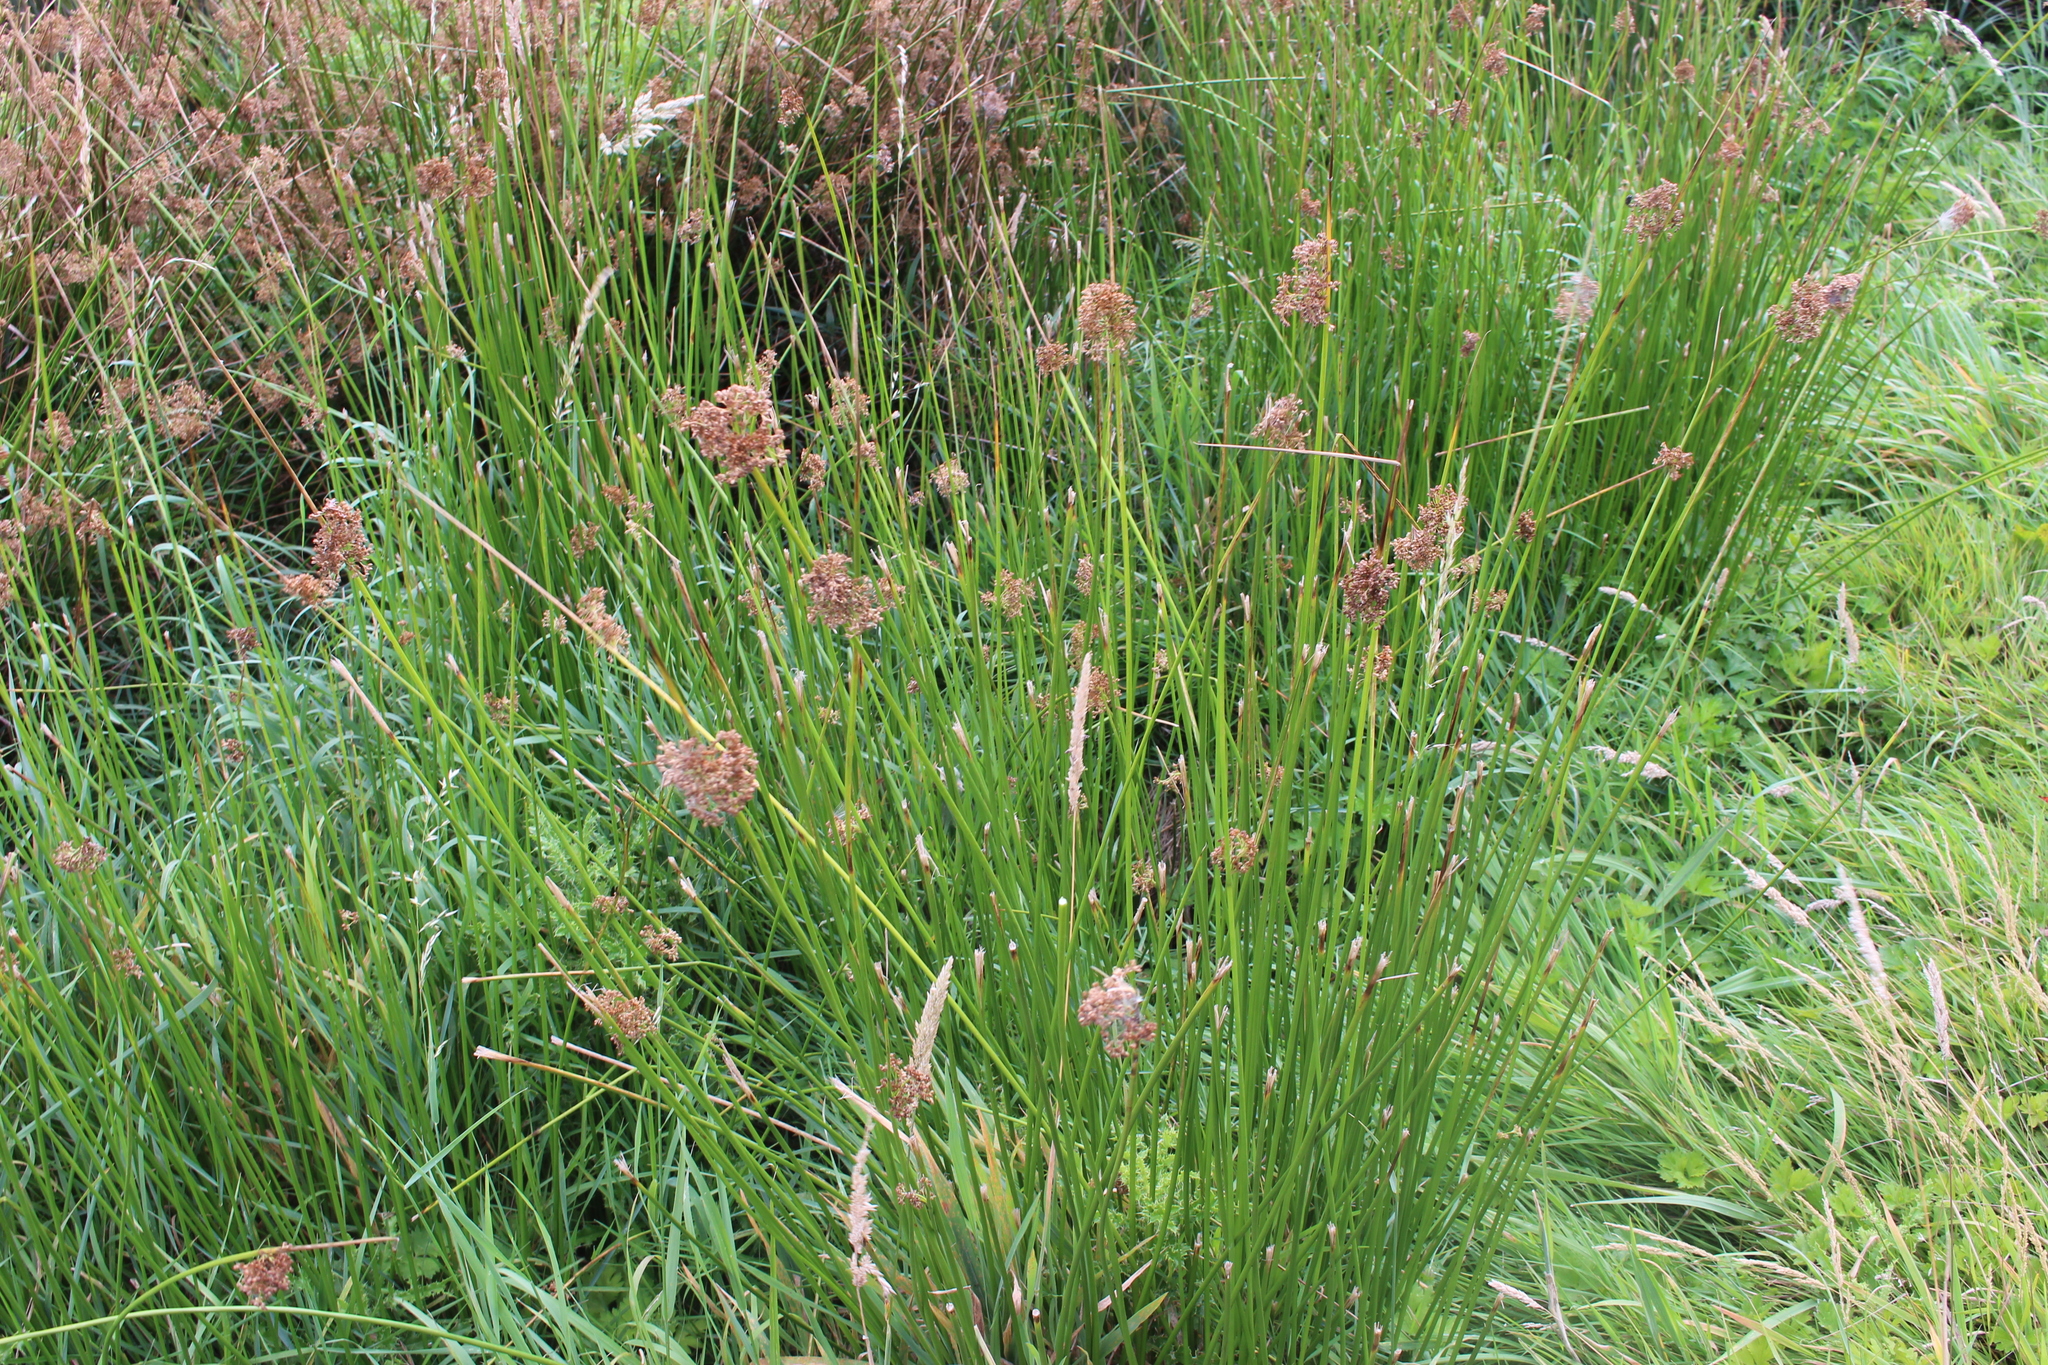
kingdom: Plantae
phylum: Tracheophyta
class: Liliopsida
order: Poales
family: Juncaceae
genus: Juncus
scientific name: Juncus effusus
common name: Soft rush
